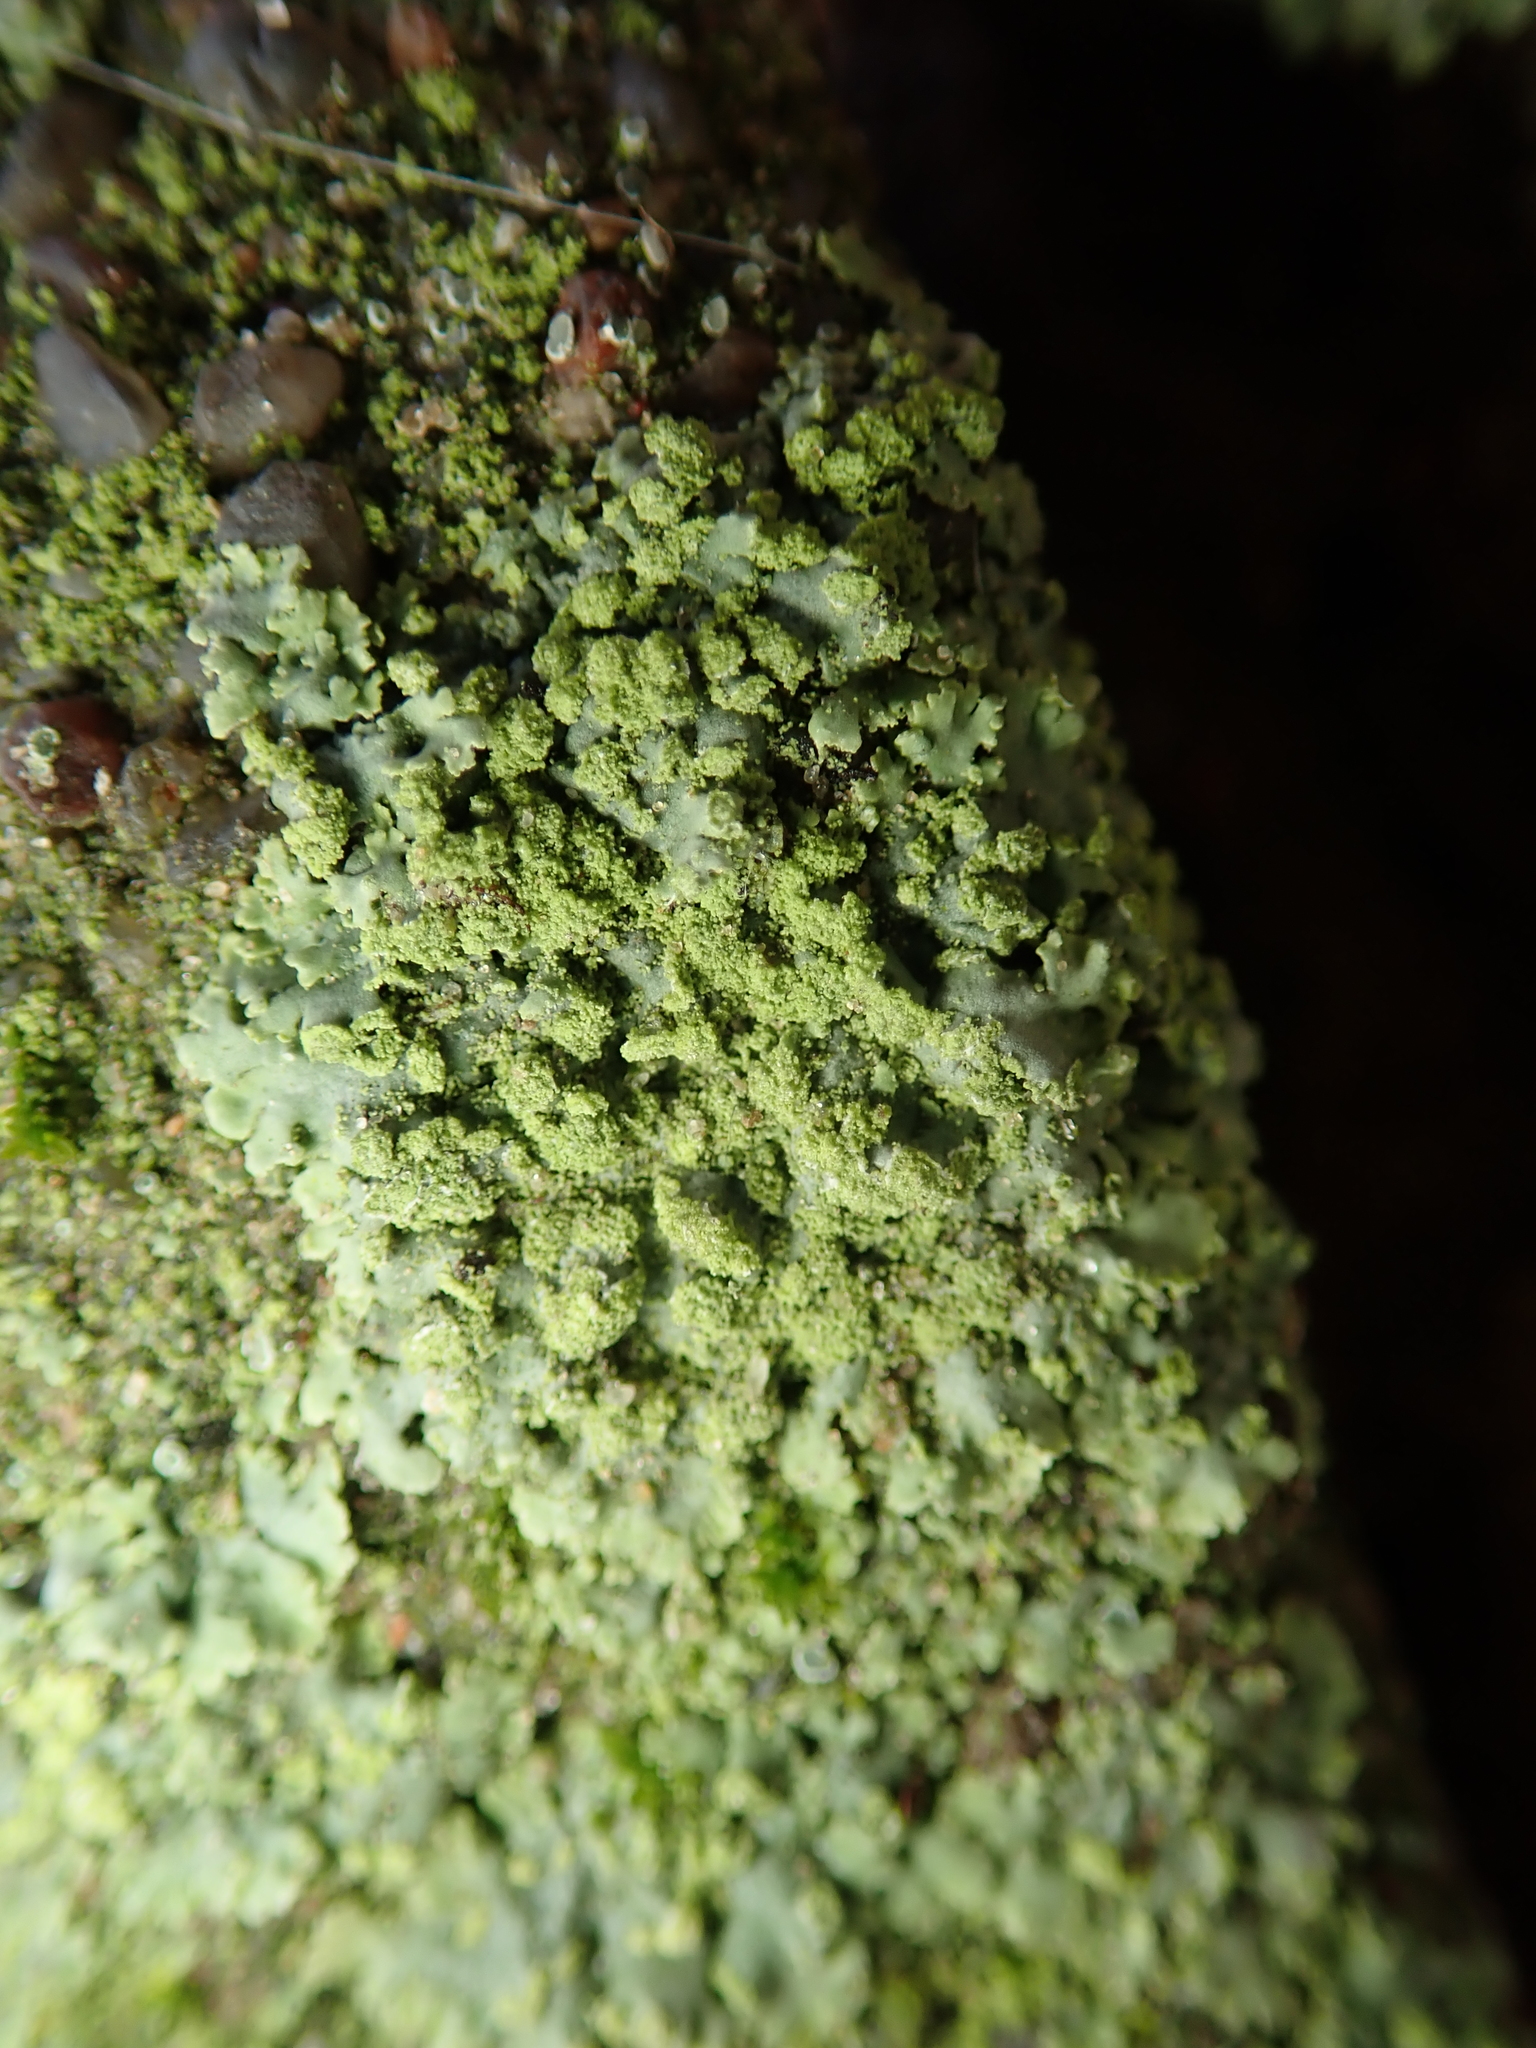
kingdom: Fungi
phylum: Ascomycota
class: Lecanoromycetes
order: Caliciales
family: Physciaceae
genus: Phaeophyscia
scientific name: Phaeophyscia orbicularis
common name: Mealy shadow lichen
